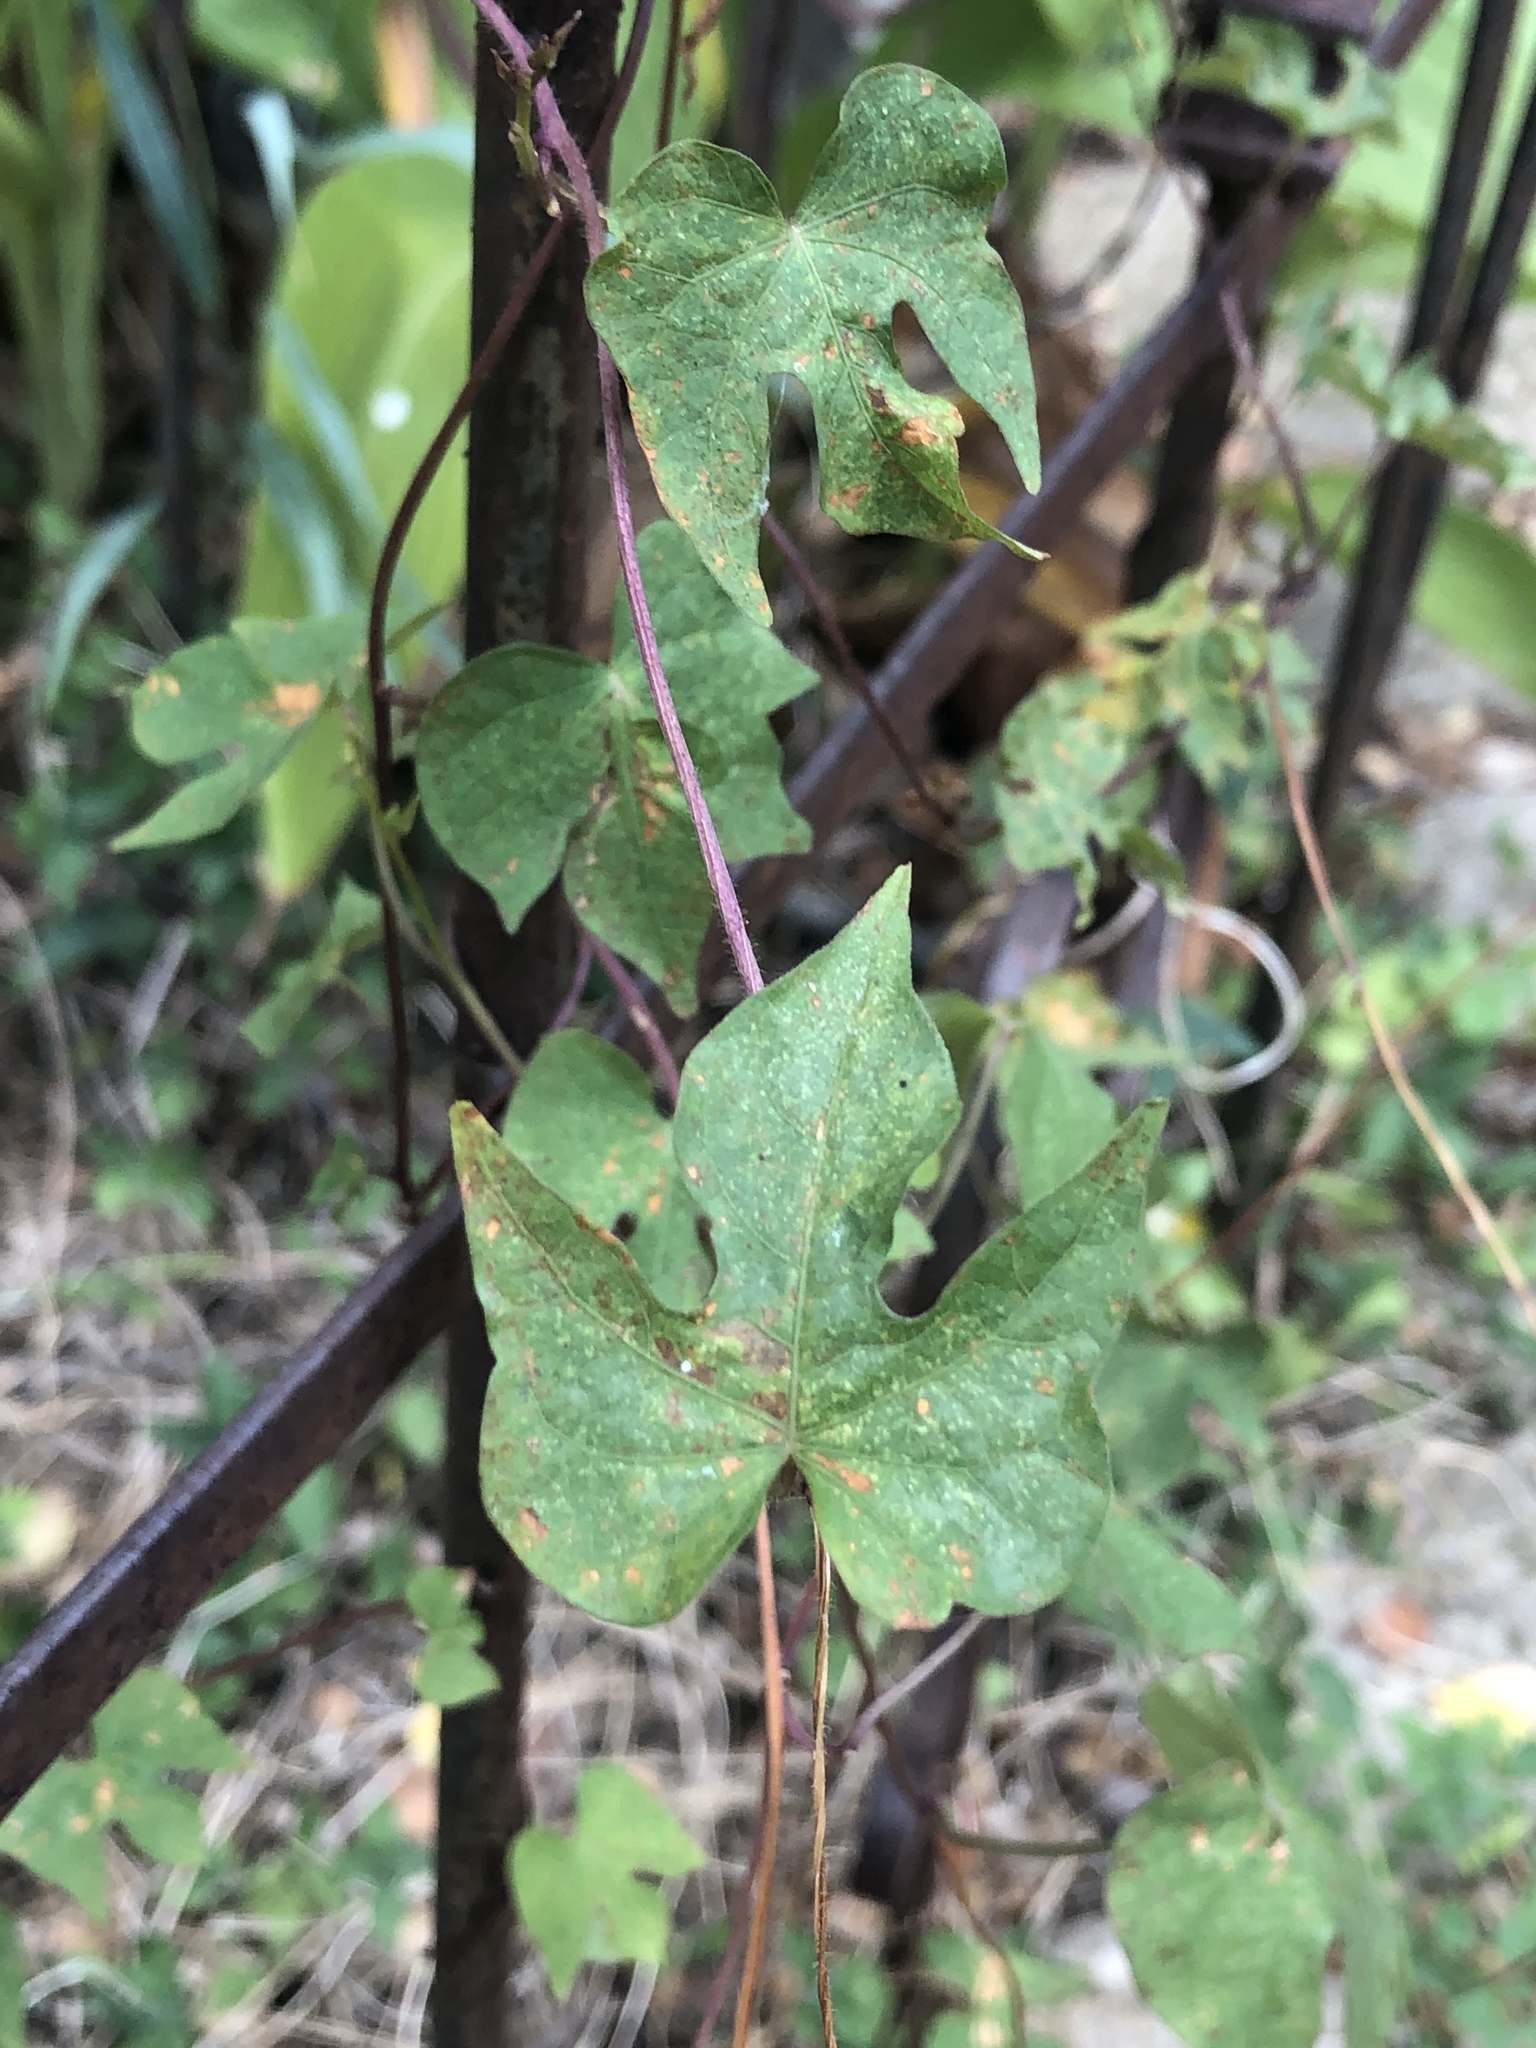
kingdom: Plantae
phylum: Tracheophyta
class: Magnoliopsida
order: Solanales
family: Convolvulaceae
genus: Ipomoea
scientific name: Ipomoea cordatotriloba
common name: Cotton morning glory
